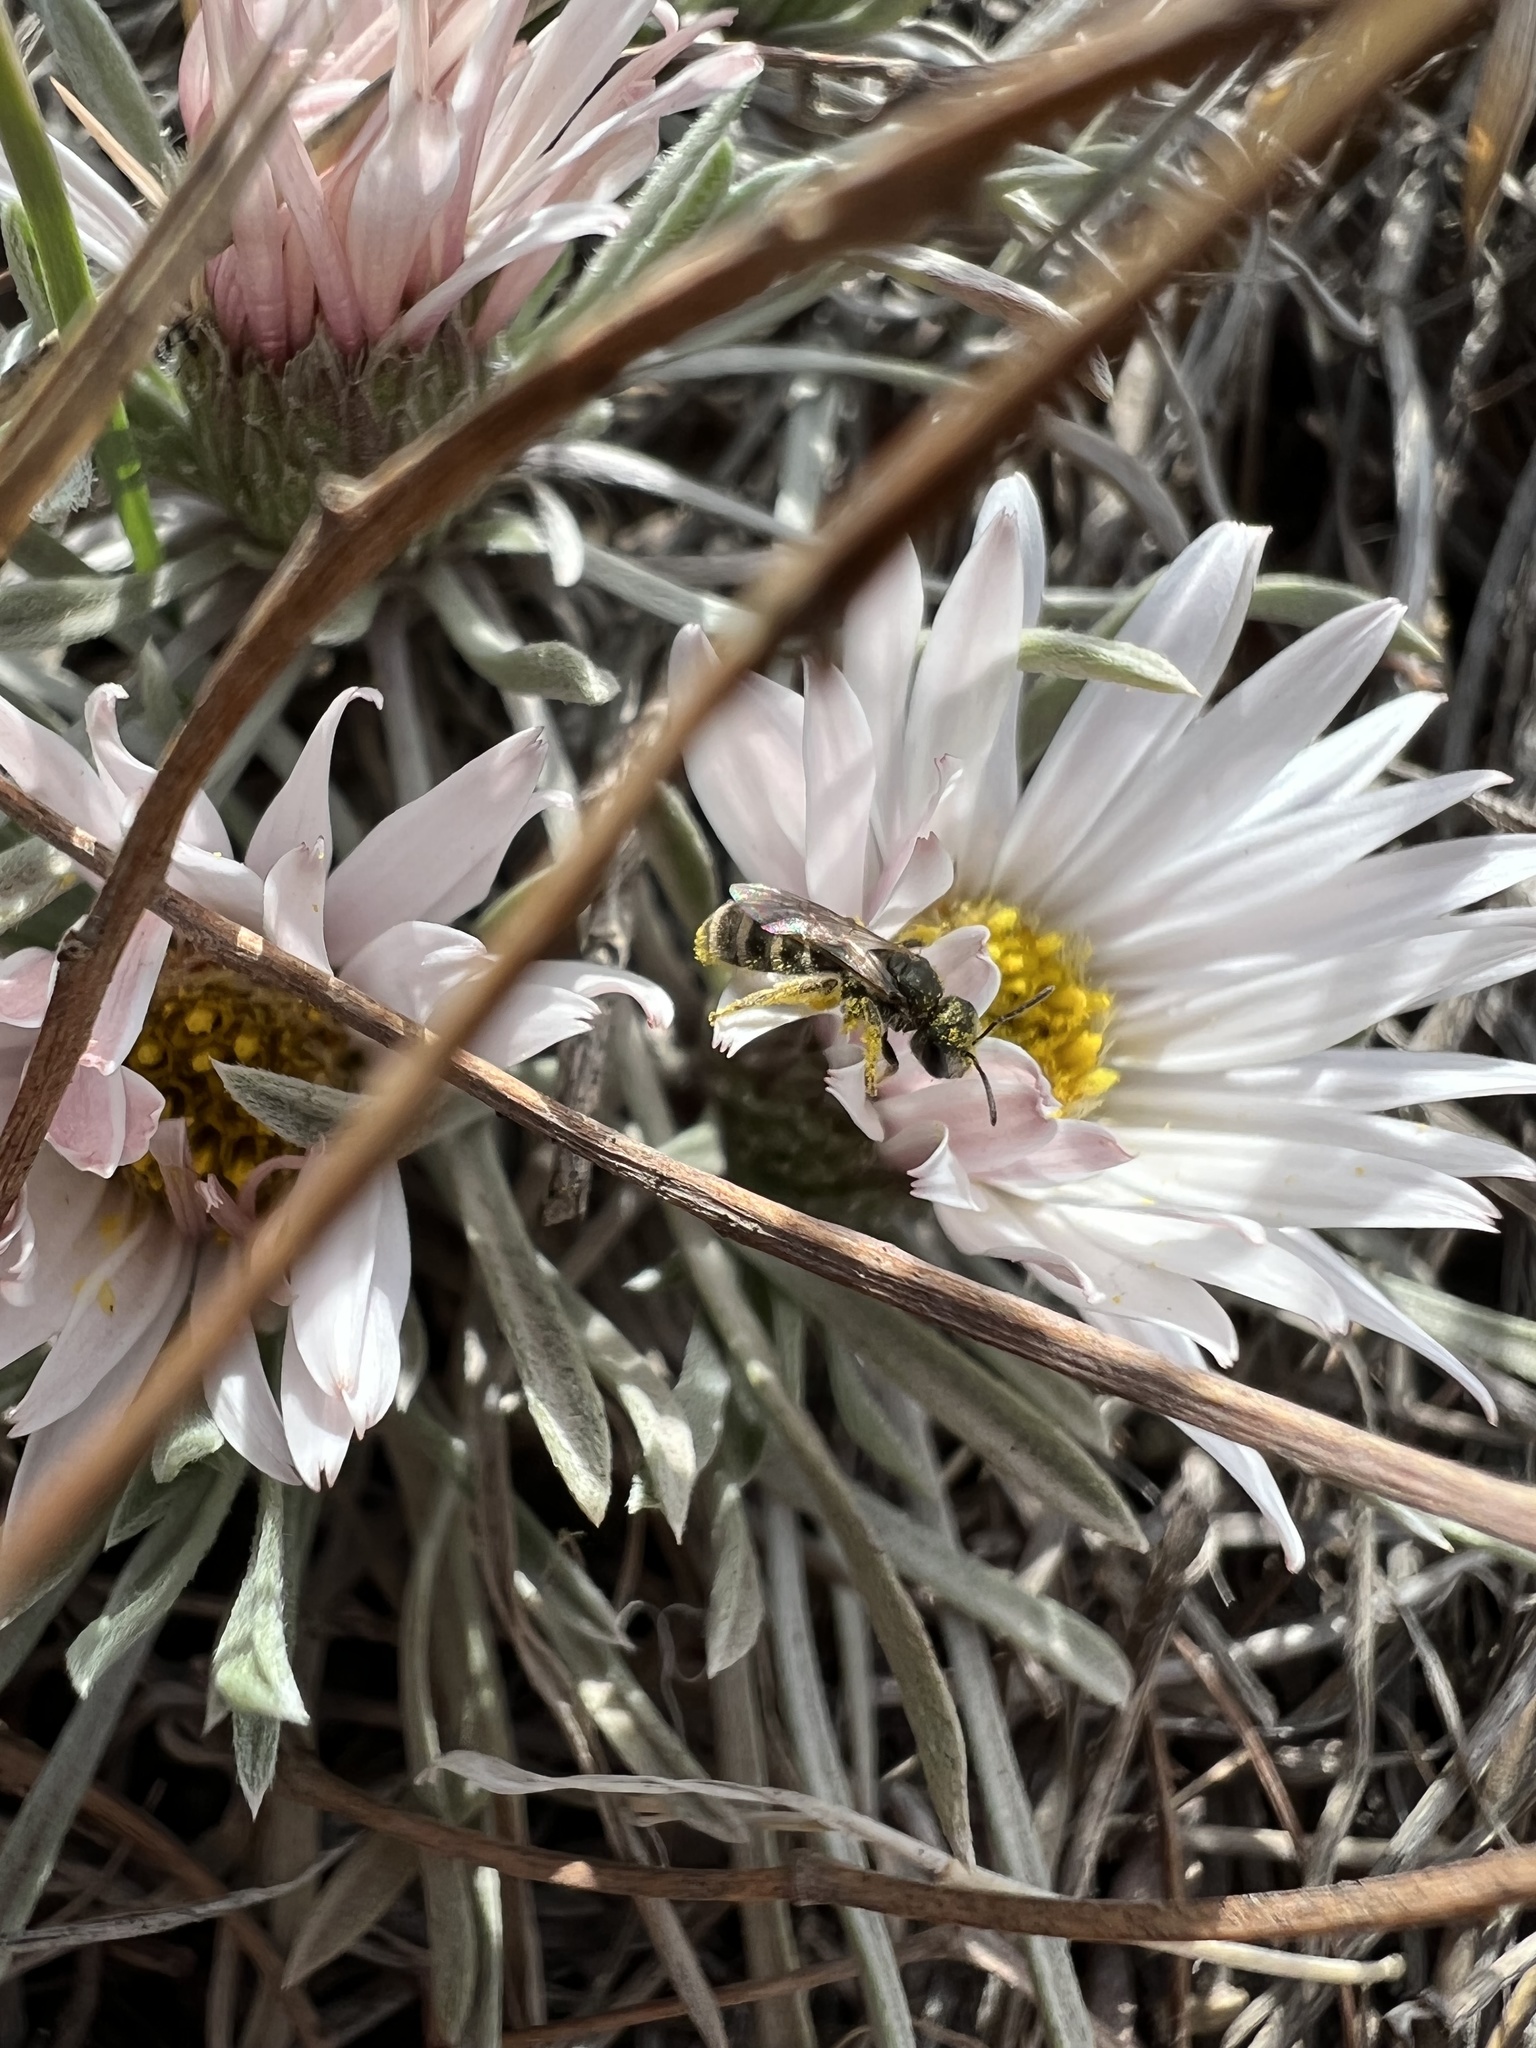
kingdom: Animalia
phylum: Arthropoda
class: Insecta
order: Hymenoptera
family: Halictidae
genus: Halictus
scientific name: Halictus tripartitus
